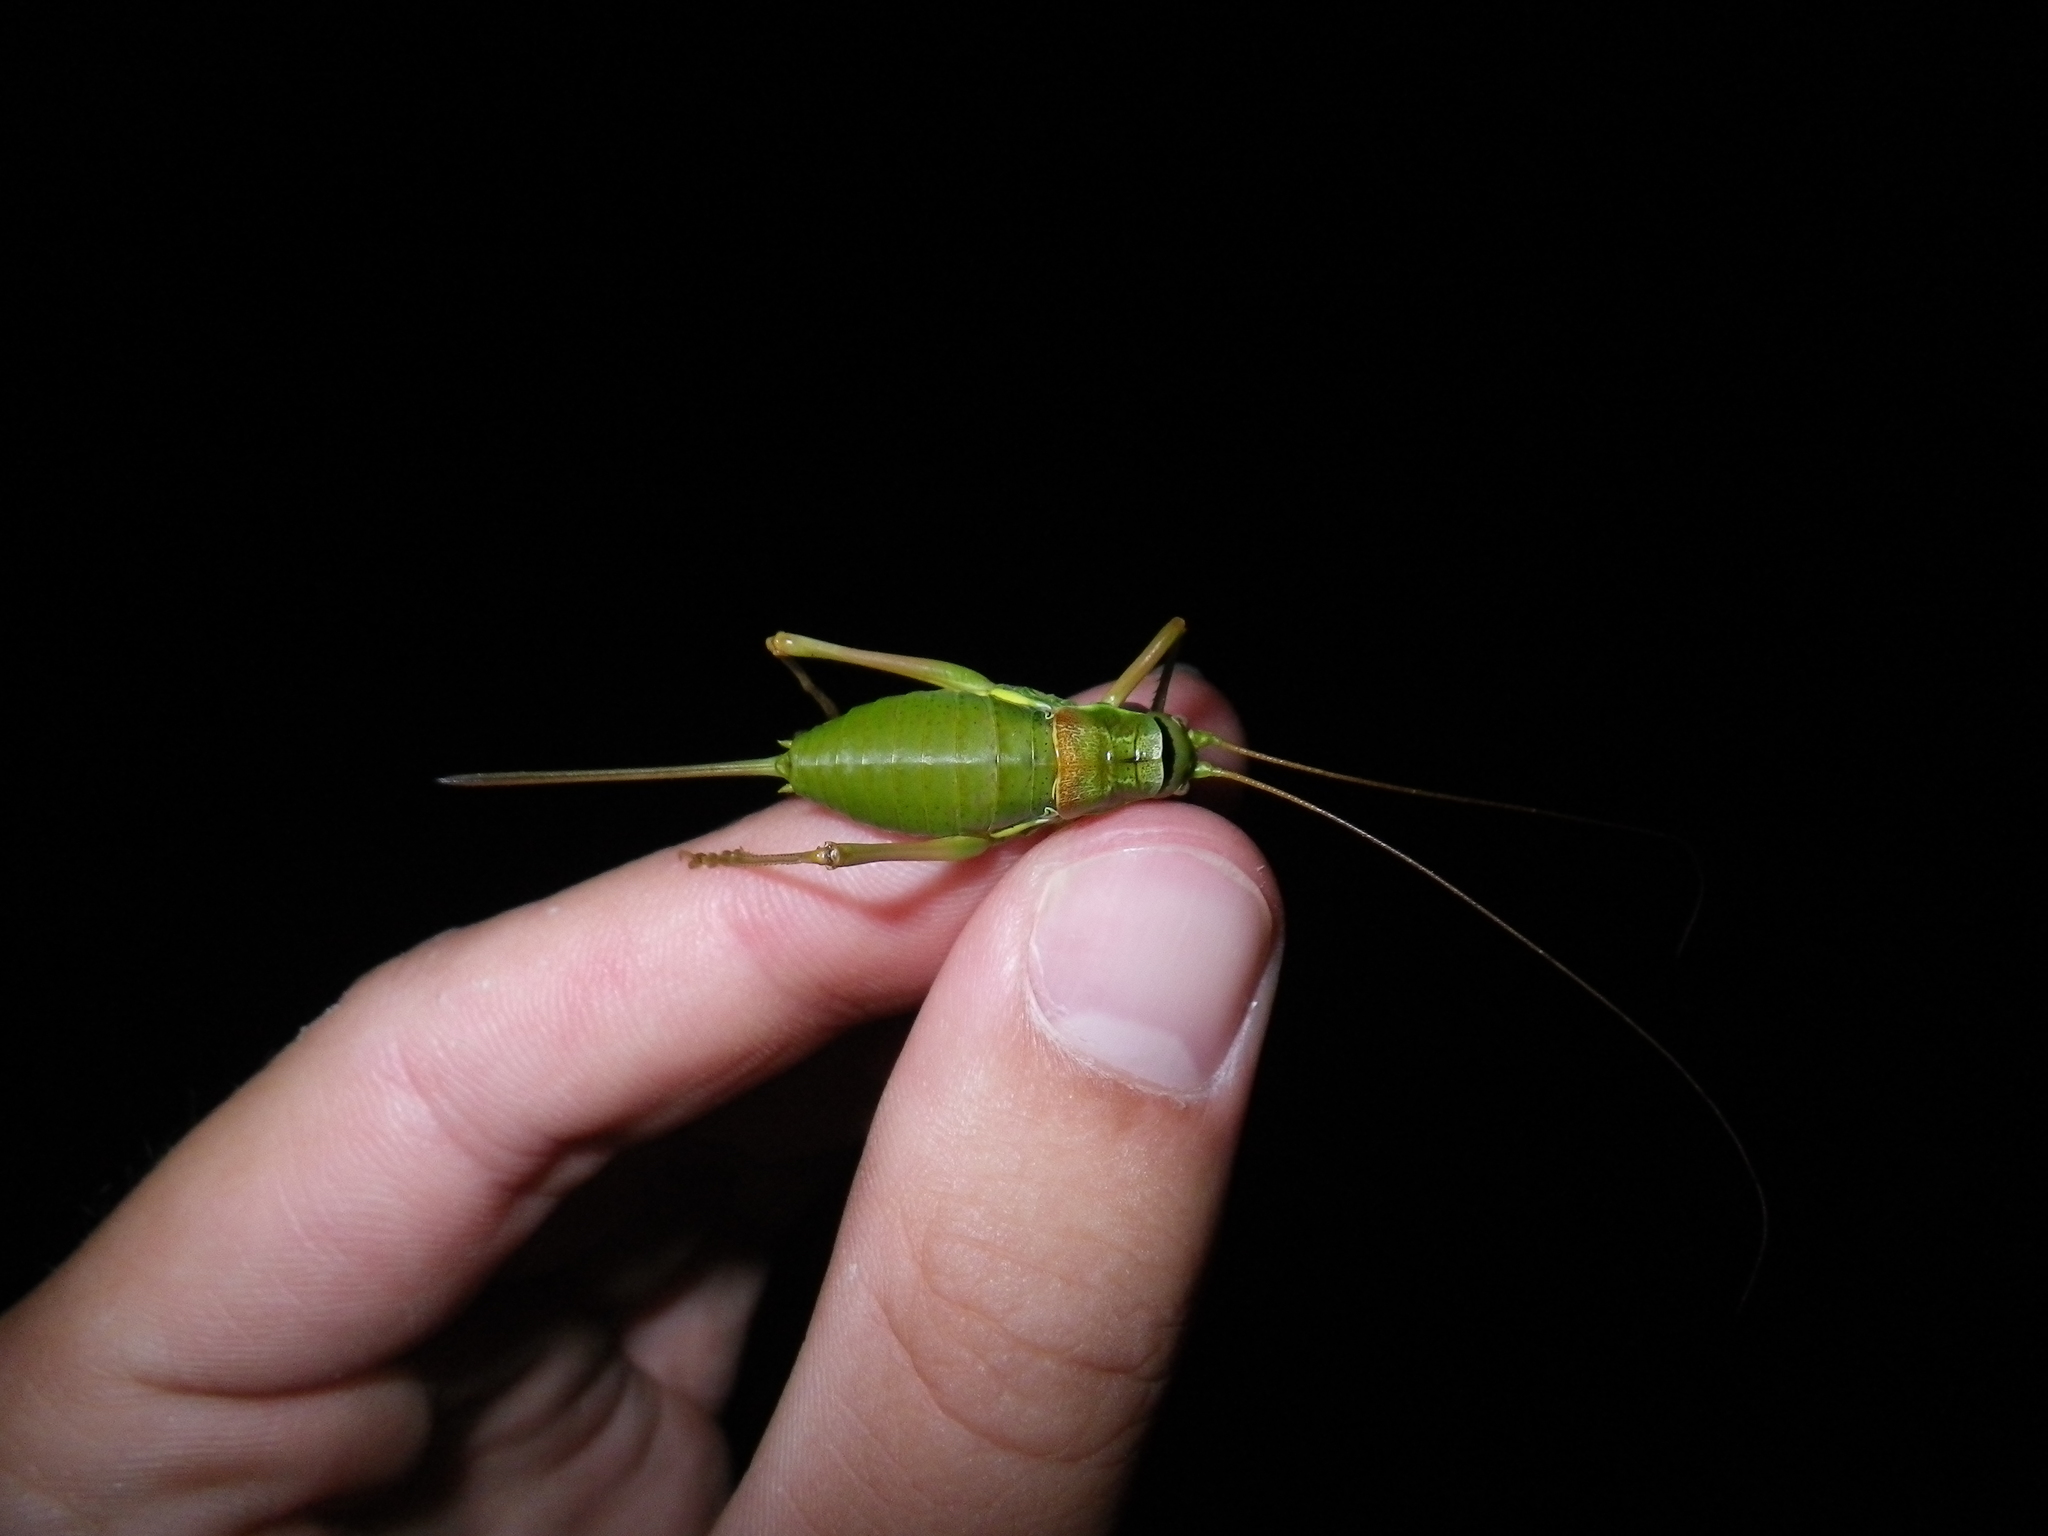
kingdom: Animalia
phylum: Arthropoda
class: Insecta
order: Orthoptera
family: Tettigoniidae
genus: Ephippiger
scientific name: Ephippiger diurnus
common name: Western saddle bush-cricket
